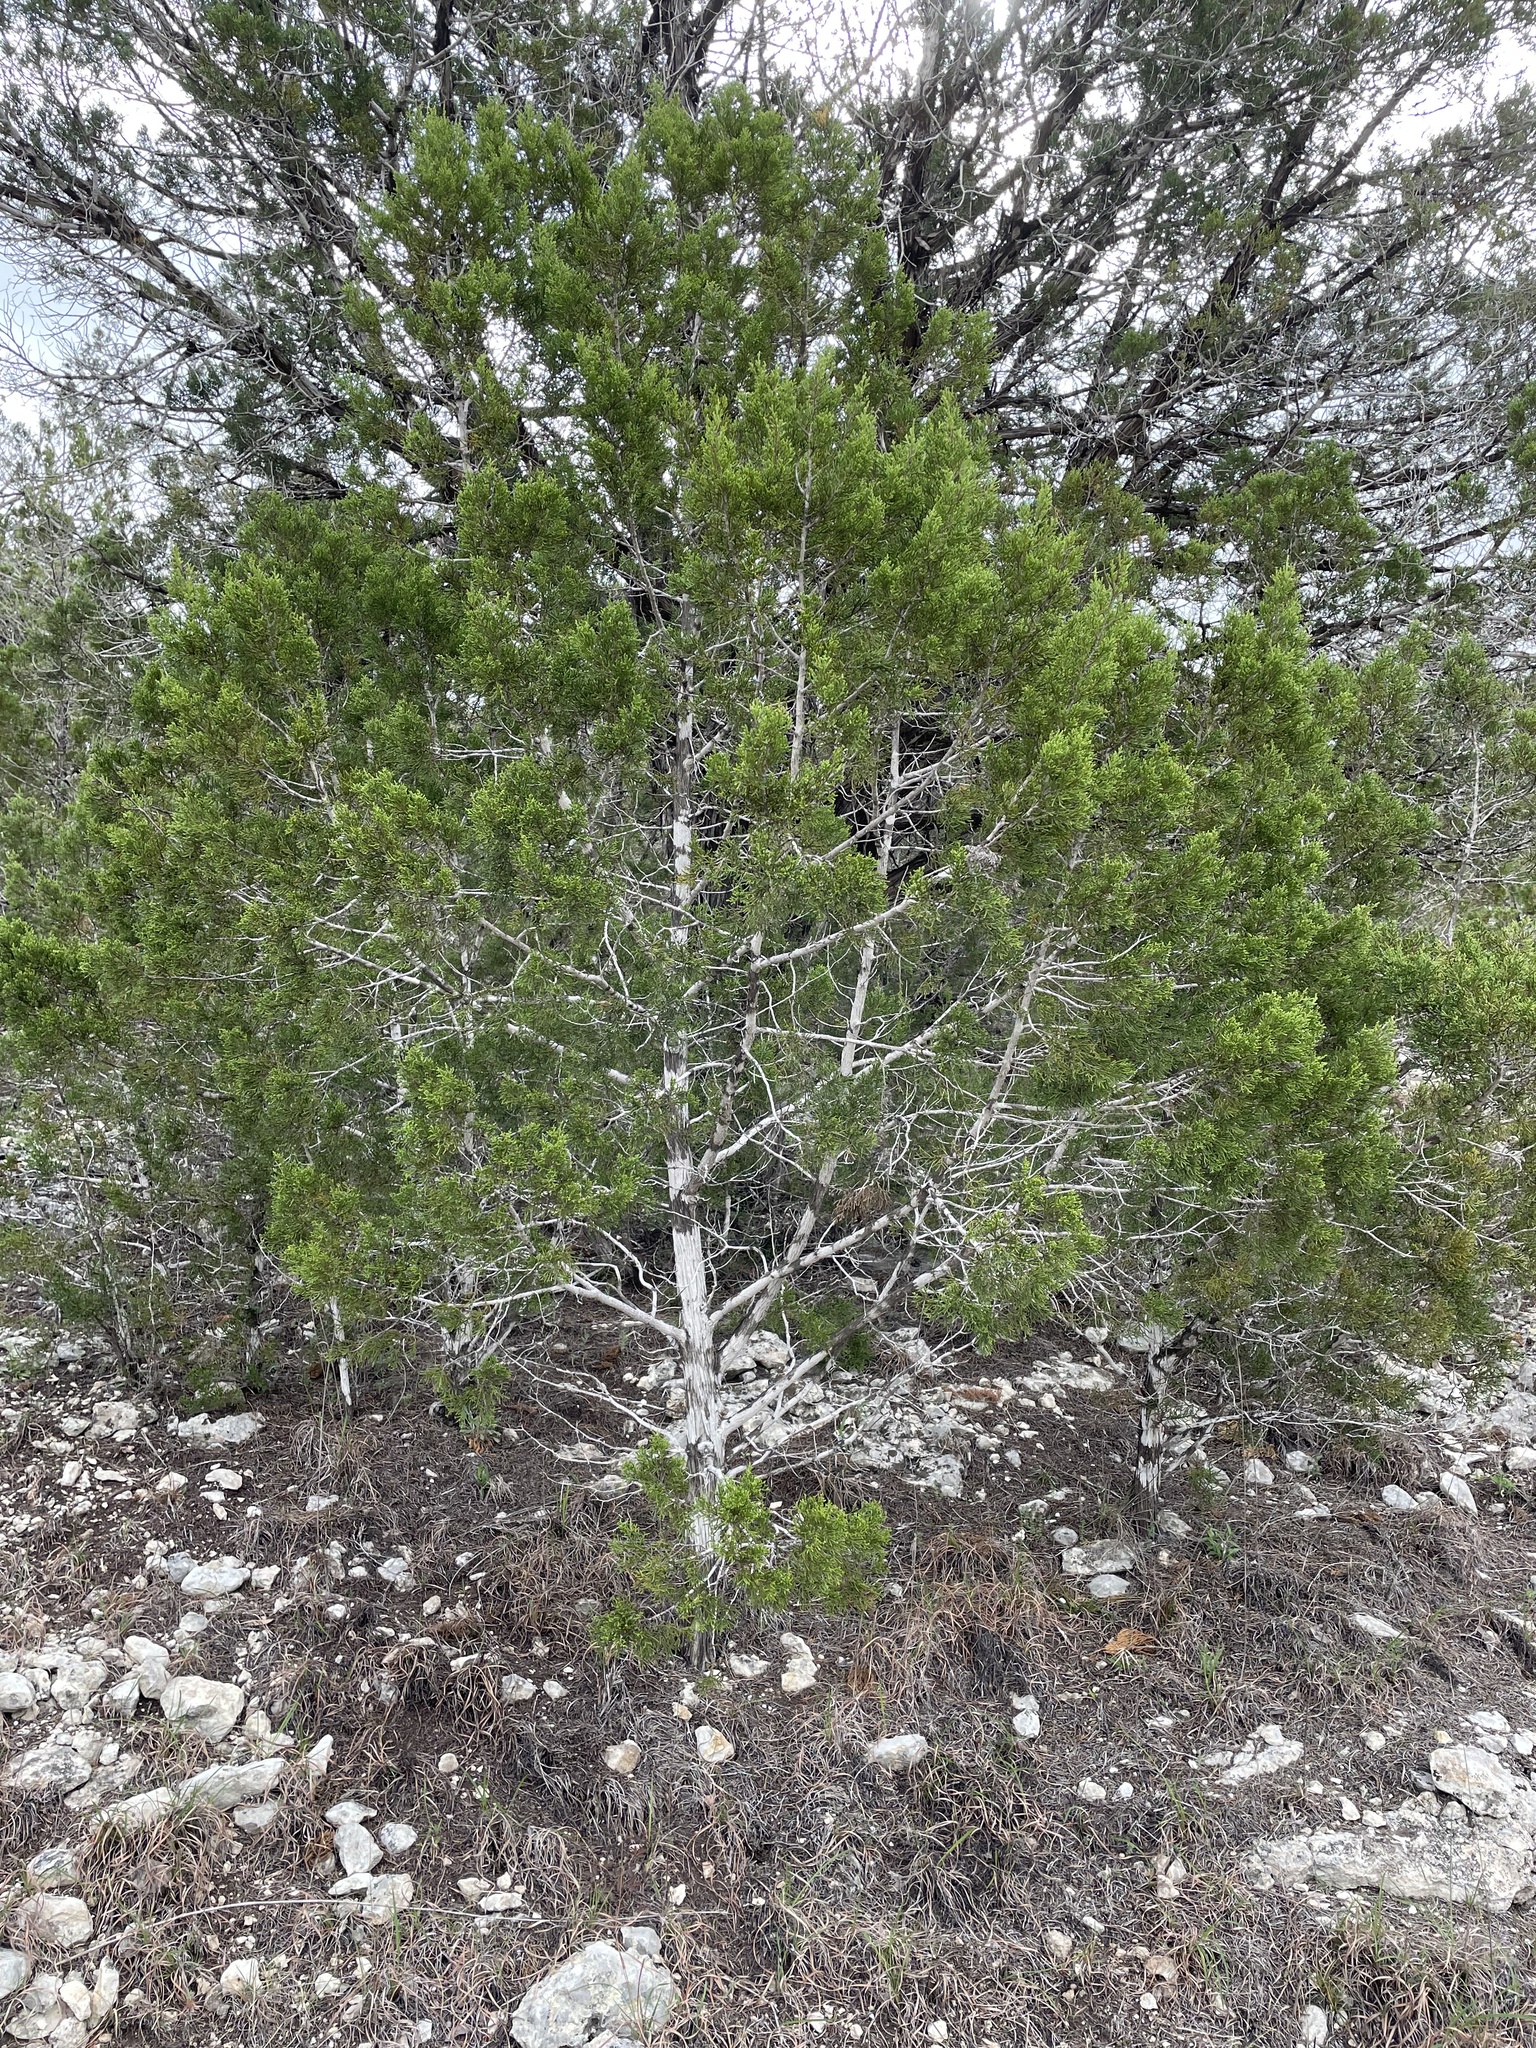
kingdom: Fungi
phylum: Ascomycota
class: Lecanoromycetes
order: Ostropales
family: Stictidaceae
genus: Robergea
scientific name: Robergea
